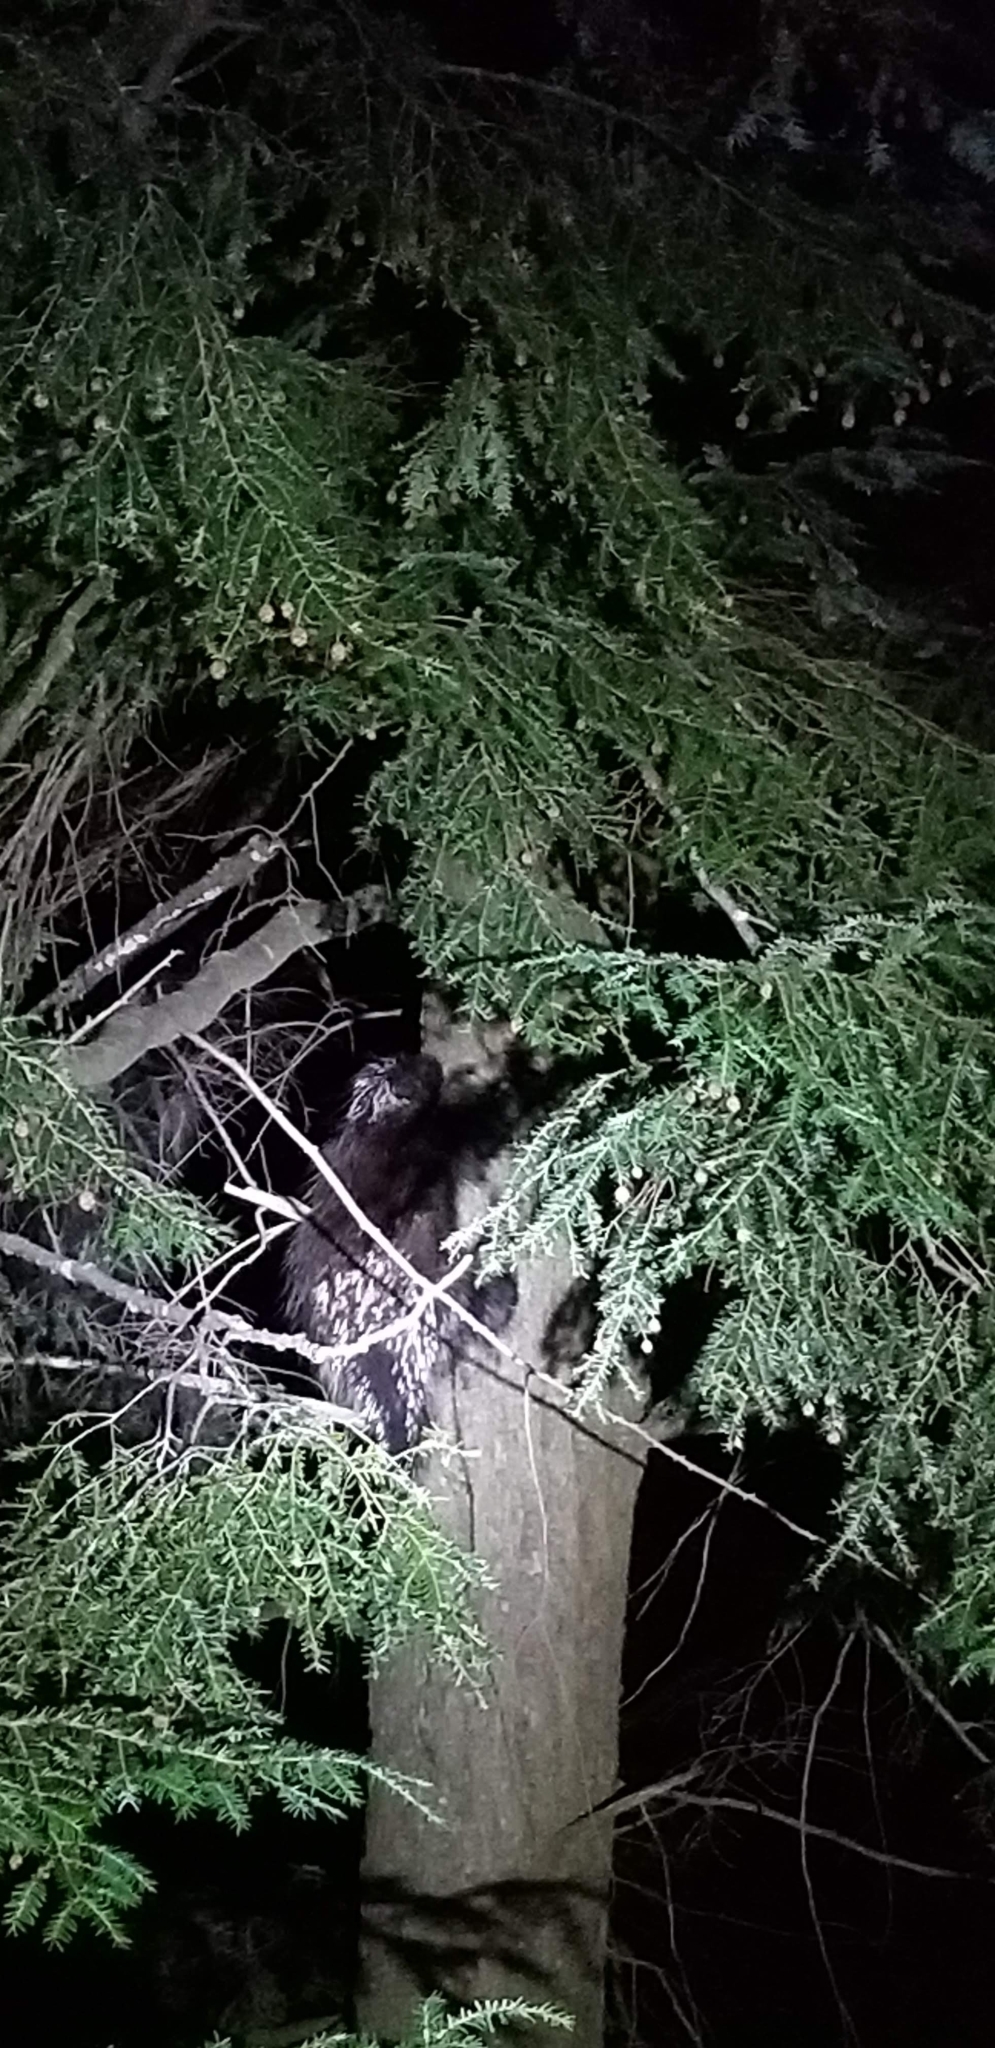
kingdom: Animalia
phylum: Chordata
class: Mammalia
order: Rodentia
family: Erethizontidae
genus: Erethizon
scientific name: Erethizon dorsatus
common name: North american porcupine
